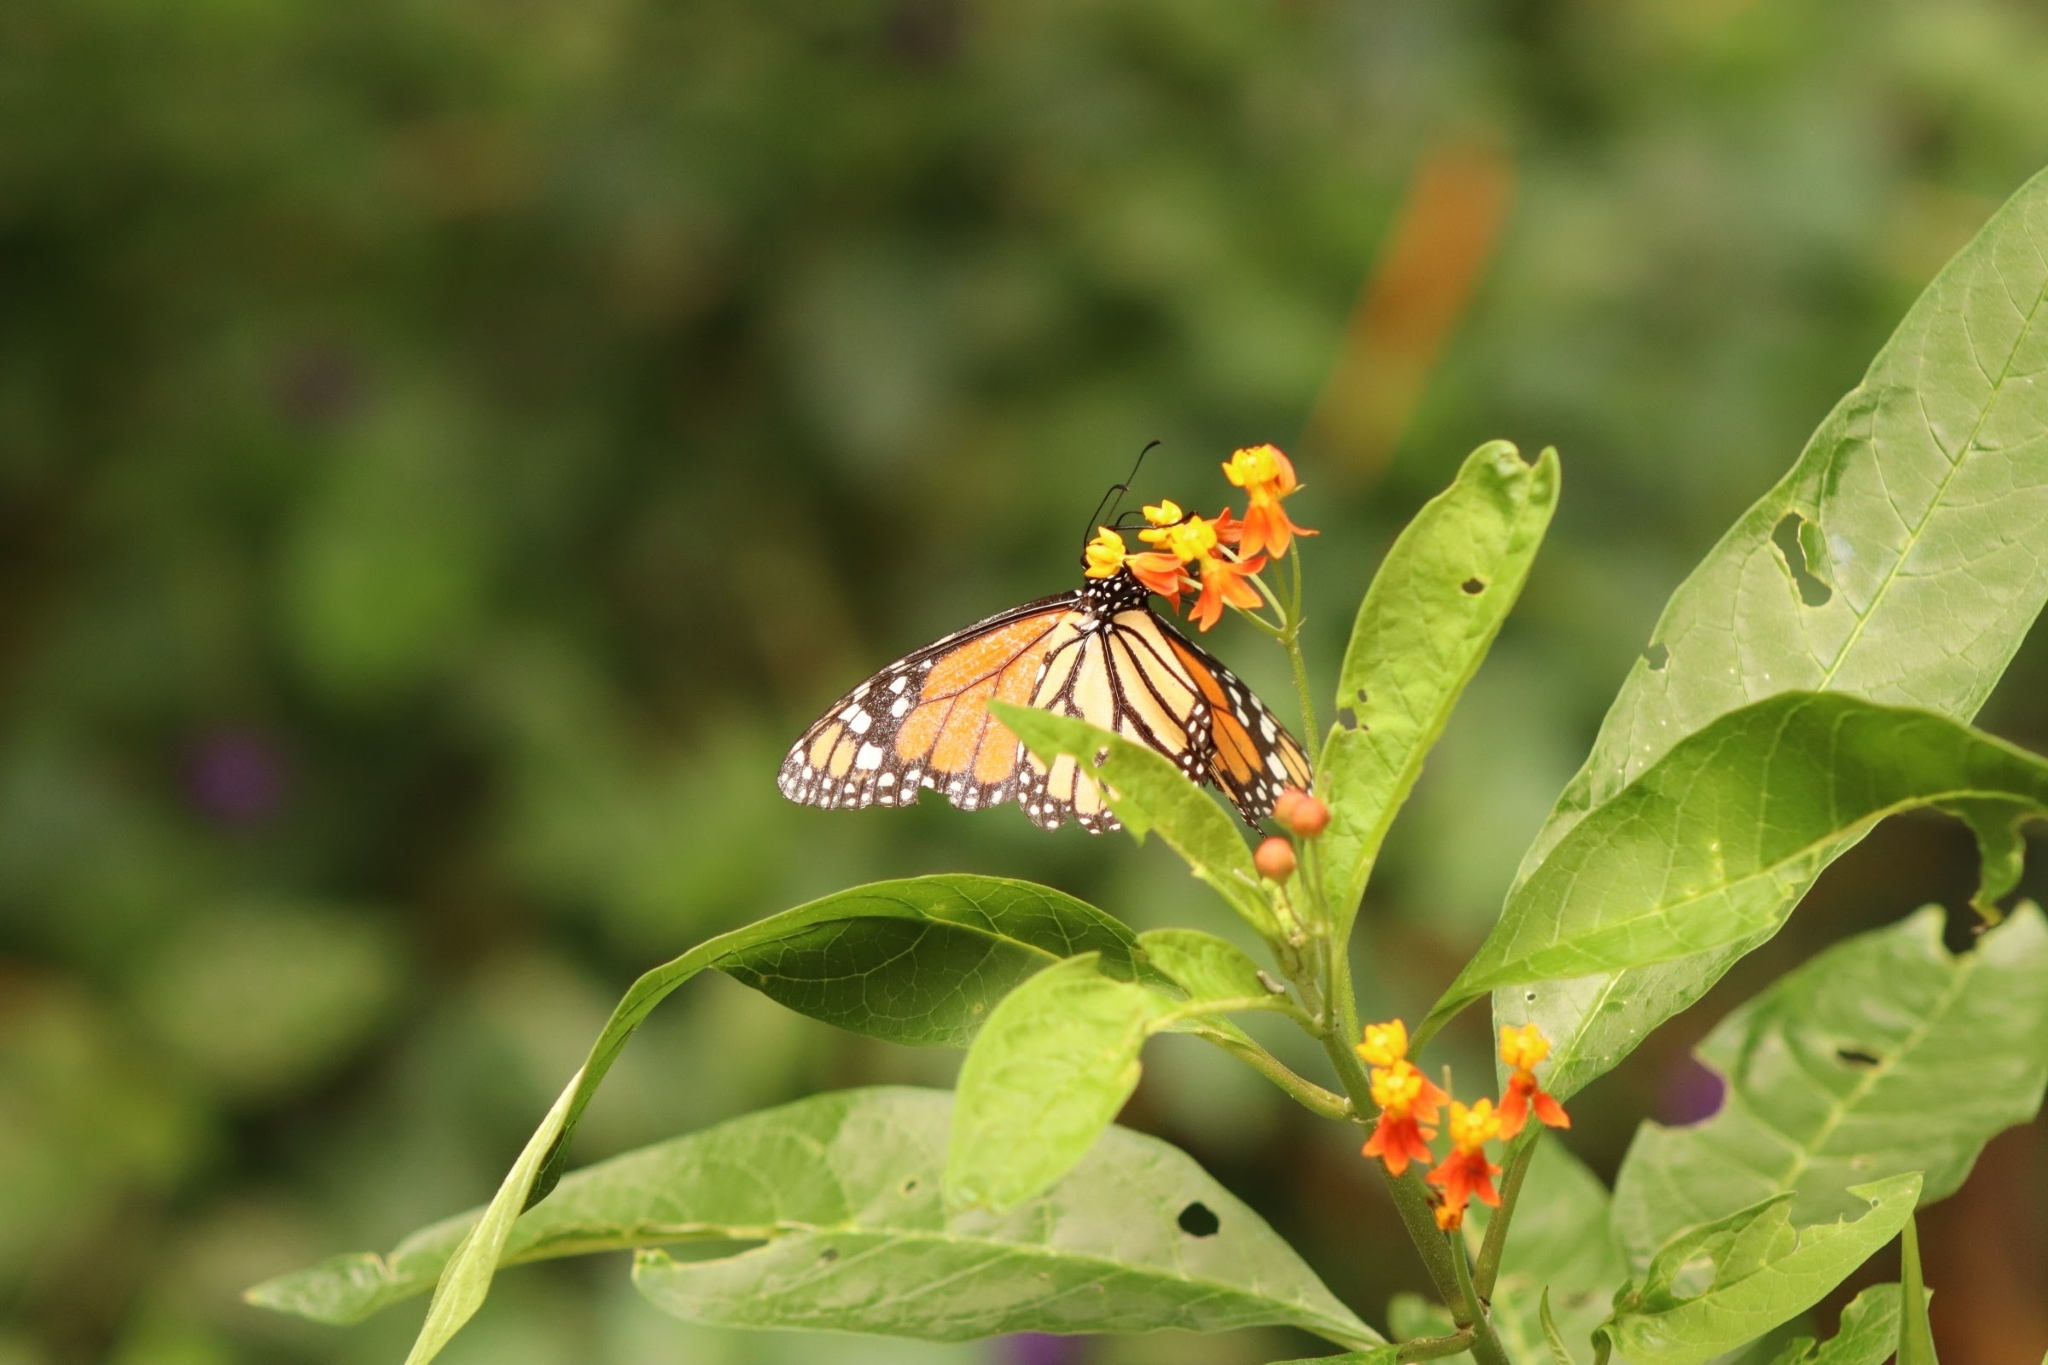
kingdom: Animalia
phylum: Arthropoda
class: Insecta
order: Lepidoptera
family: Nymphalidae
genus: Danaus
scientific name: Danaus plexippus
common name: Monarch
